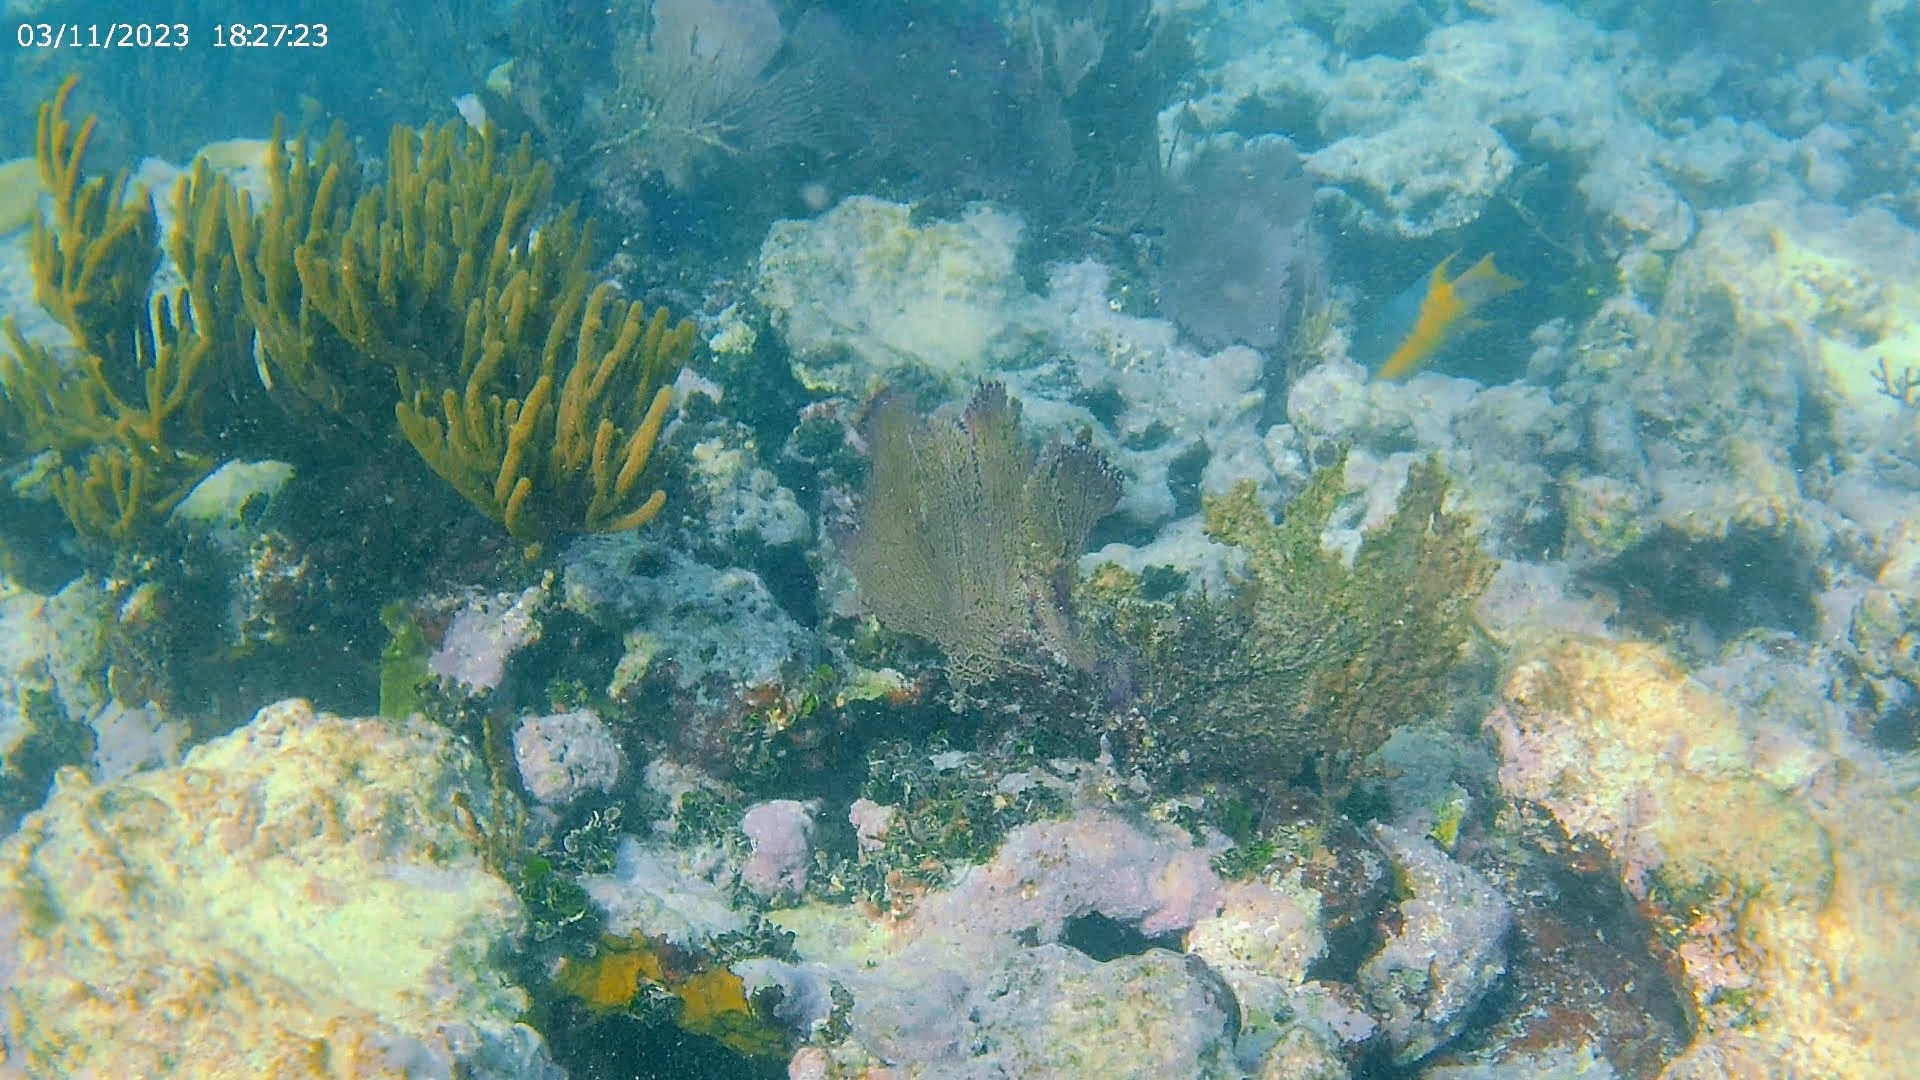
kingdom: Animalia
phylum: Chordata
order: Perciformes
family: Labridae
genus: Bodianus
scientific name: Bodianus rufus
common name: Spanish hogfish
